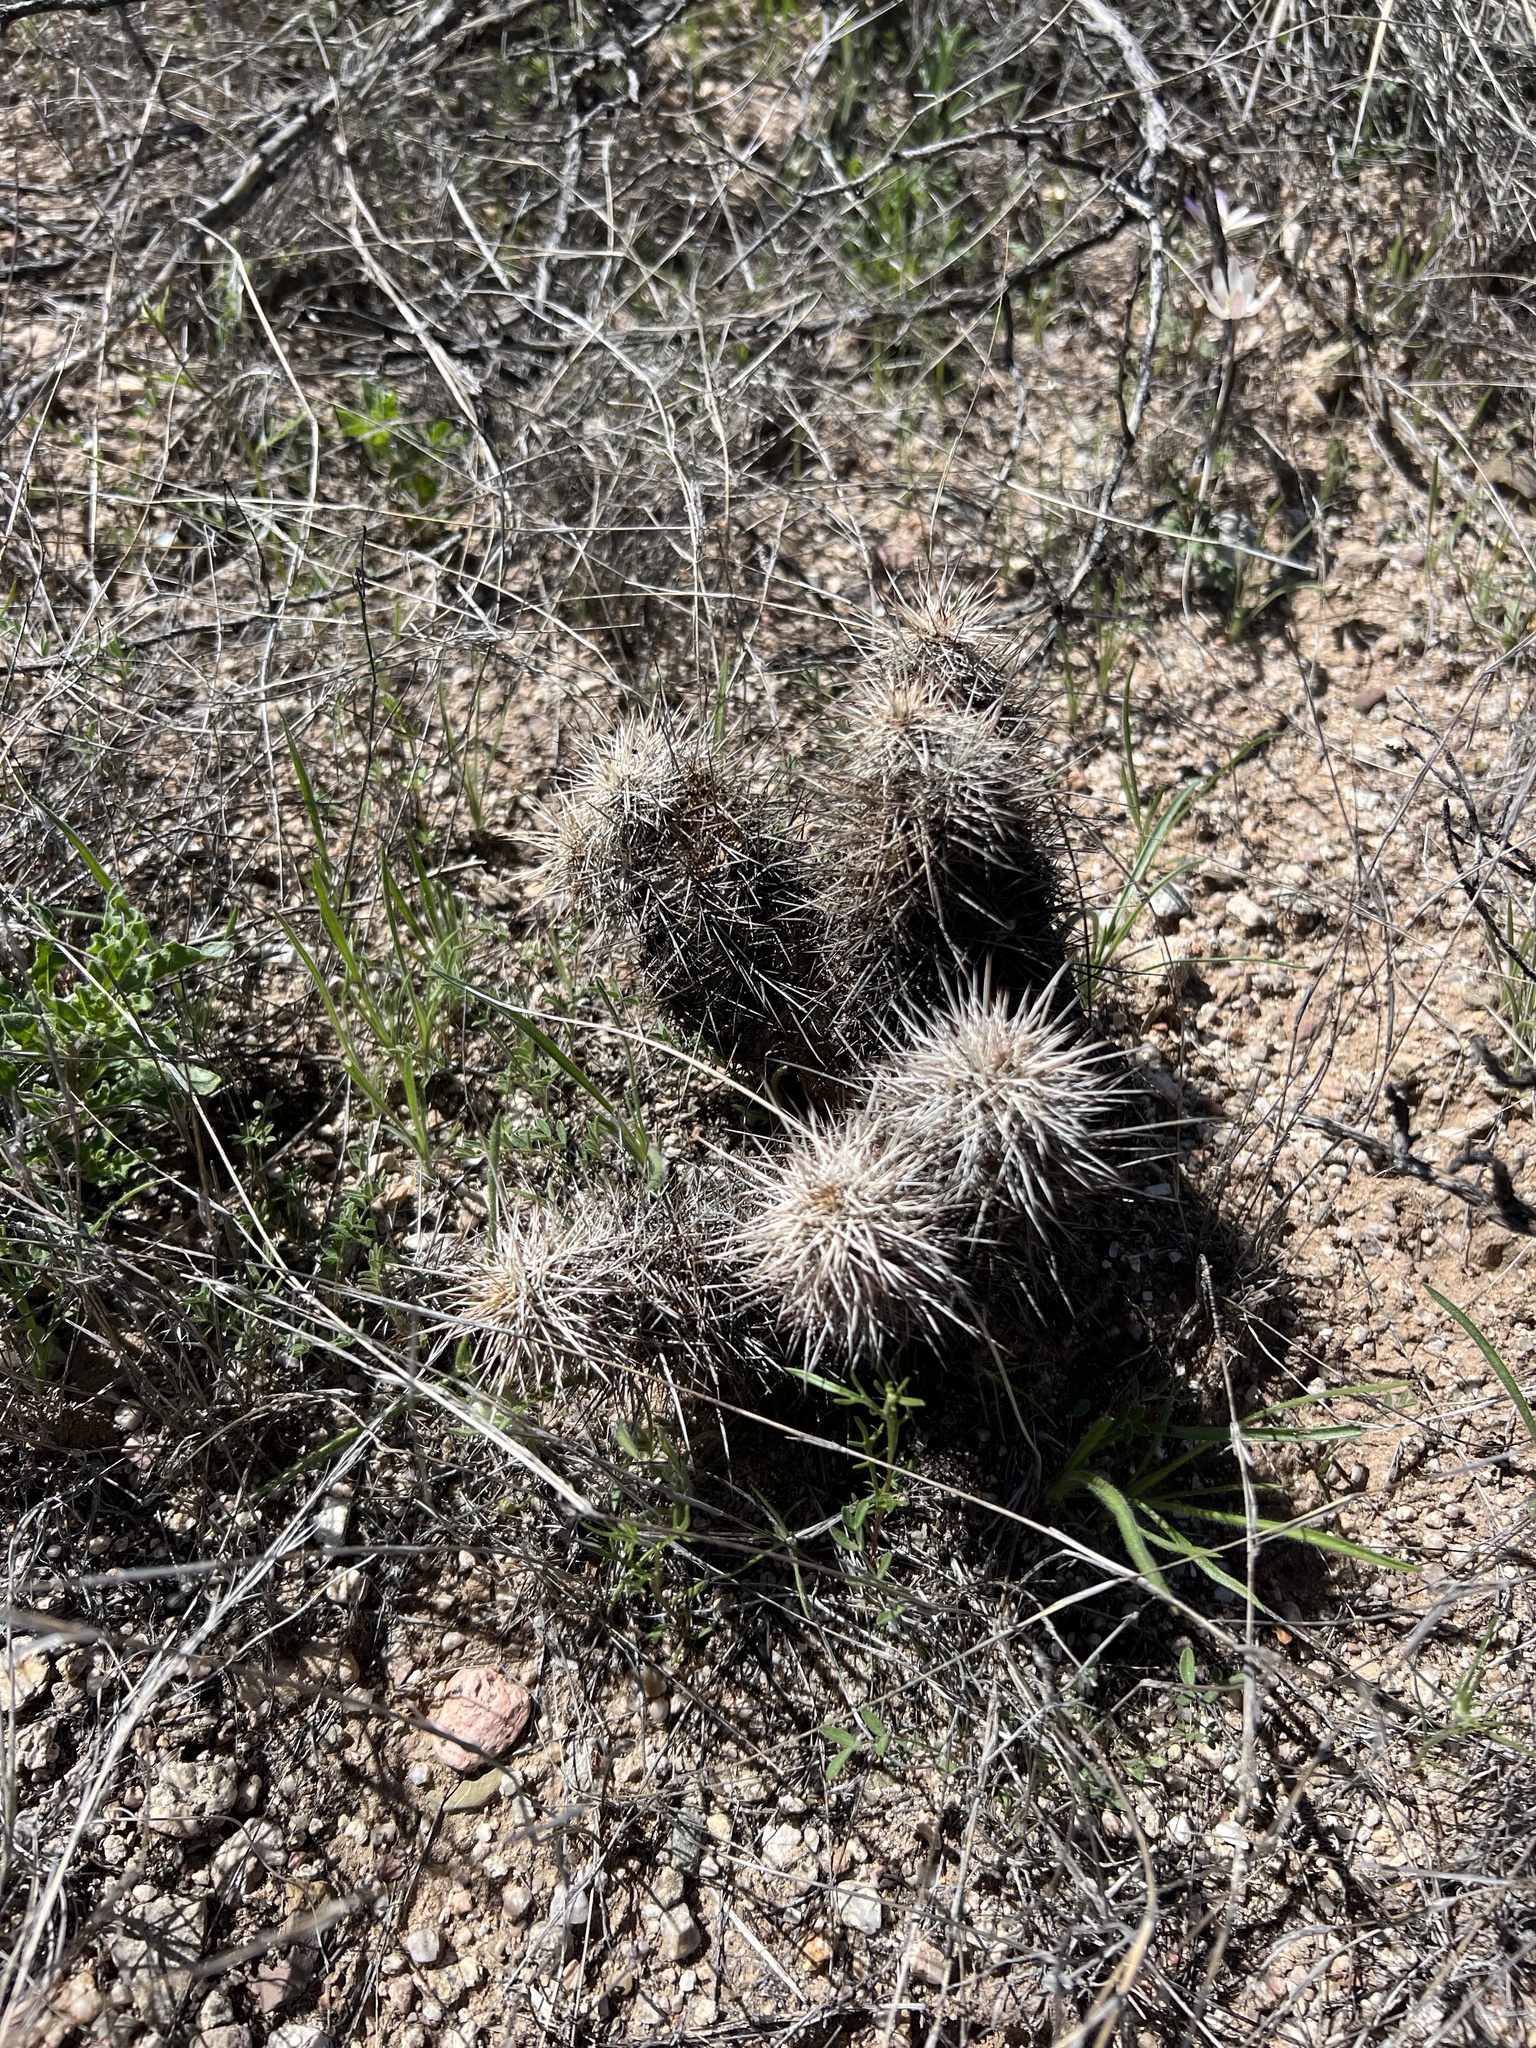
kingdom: Plantae
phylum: Tracheophyta
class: Magnoliopsida
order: Caryophyllales
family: Cactaceae
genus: Echinocereus
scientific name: Echinocereus fasciculatus
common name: Bundle hedgehog
